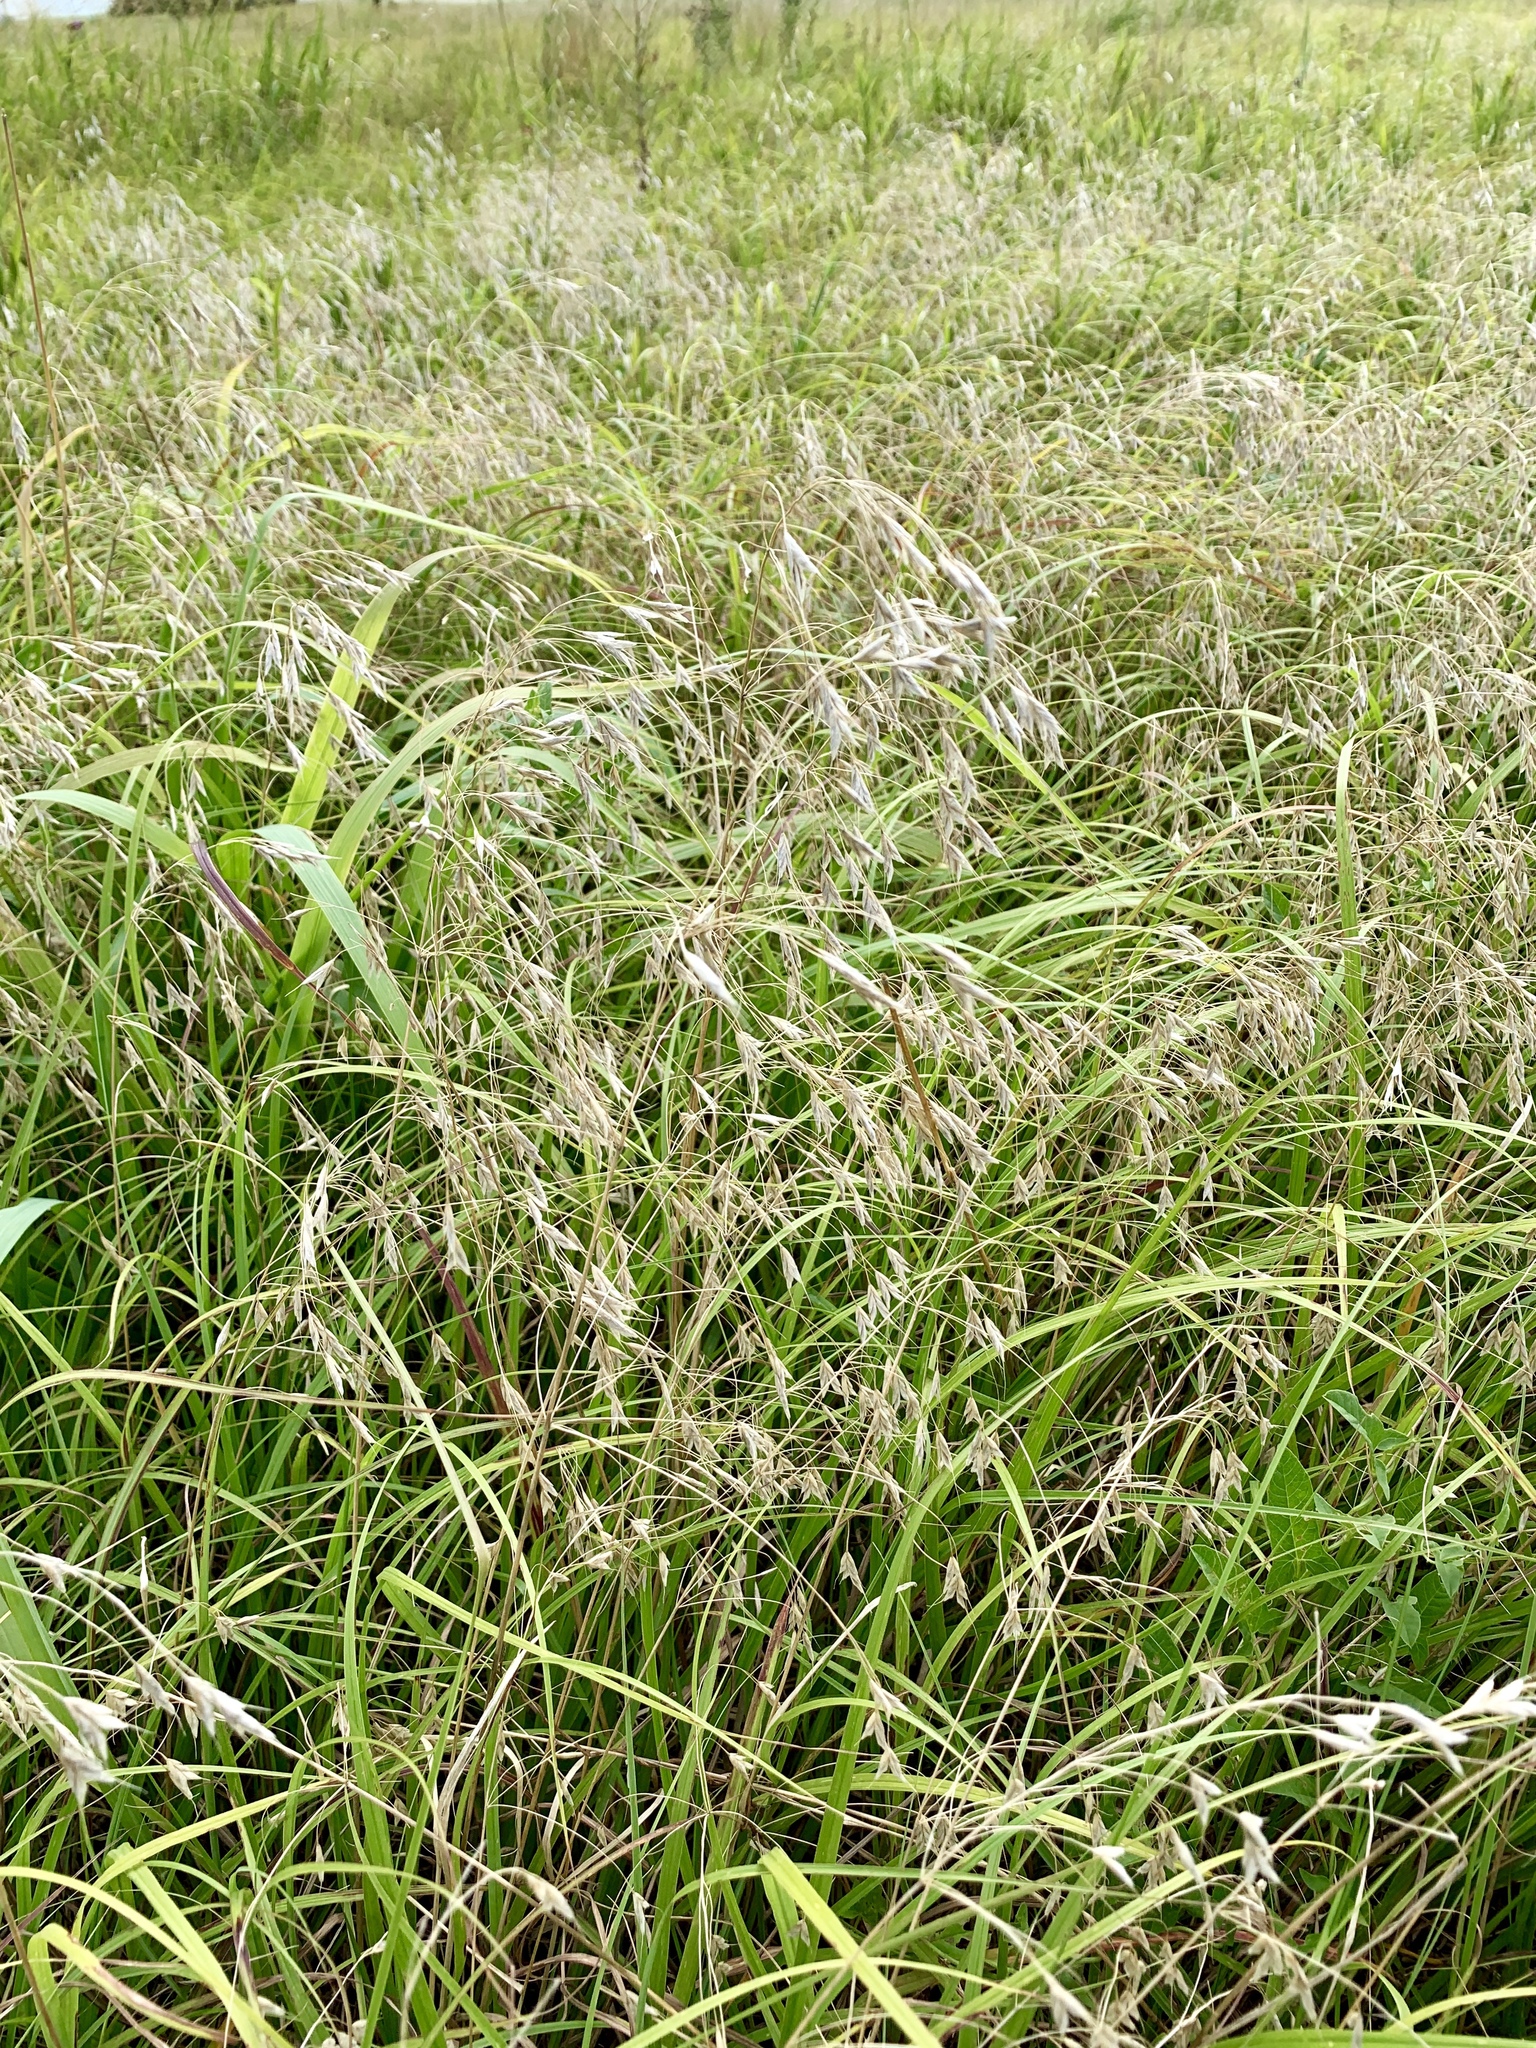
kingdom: Plantae
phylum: Tracheophyta
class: Liliopsida
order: Poales
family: Poaceae
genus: Bromus
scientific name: Bromus japonicus
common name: Japanese brome
